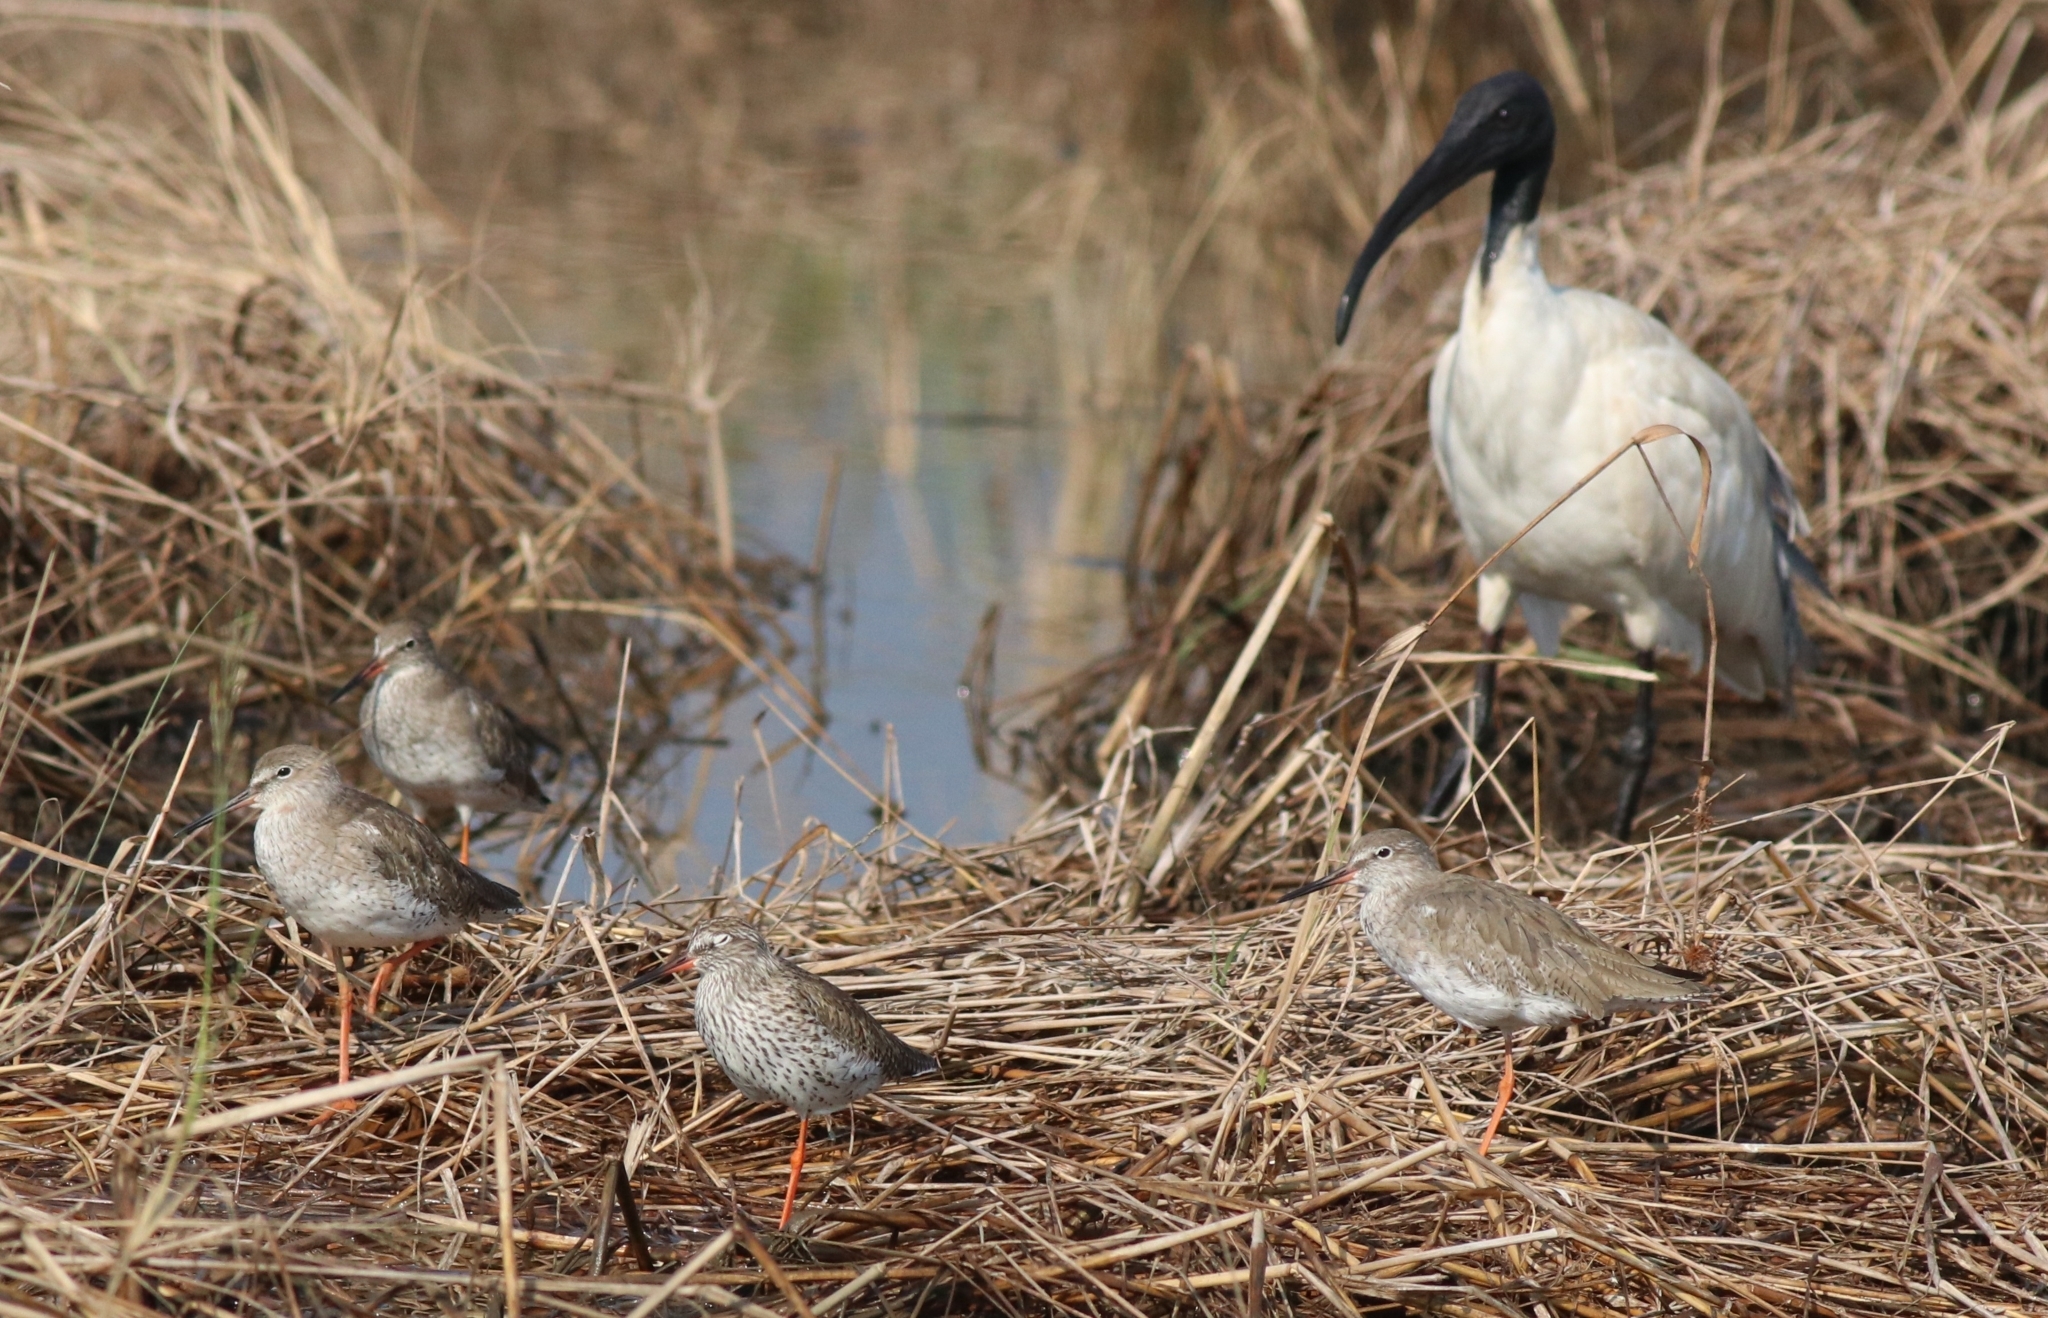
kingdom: Animalia
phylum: Chordata
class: Aves
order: Pelecaniformes
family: Threskiornithidae
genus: Threskiornis
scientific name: Threskiornis melanocephalus
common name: Black-headed ibis
